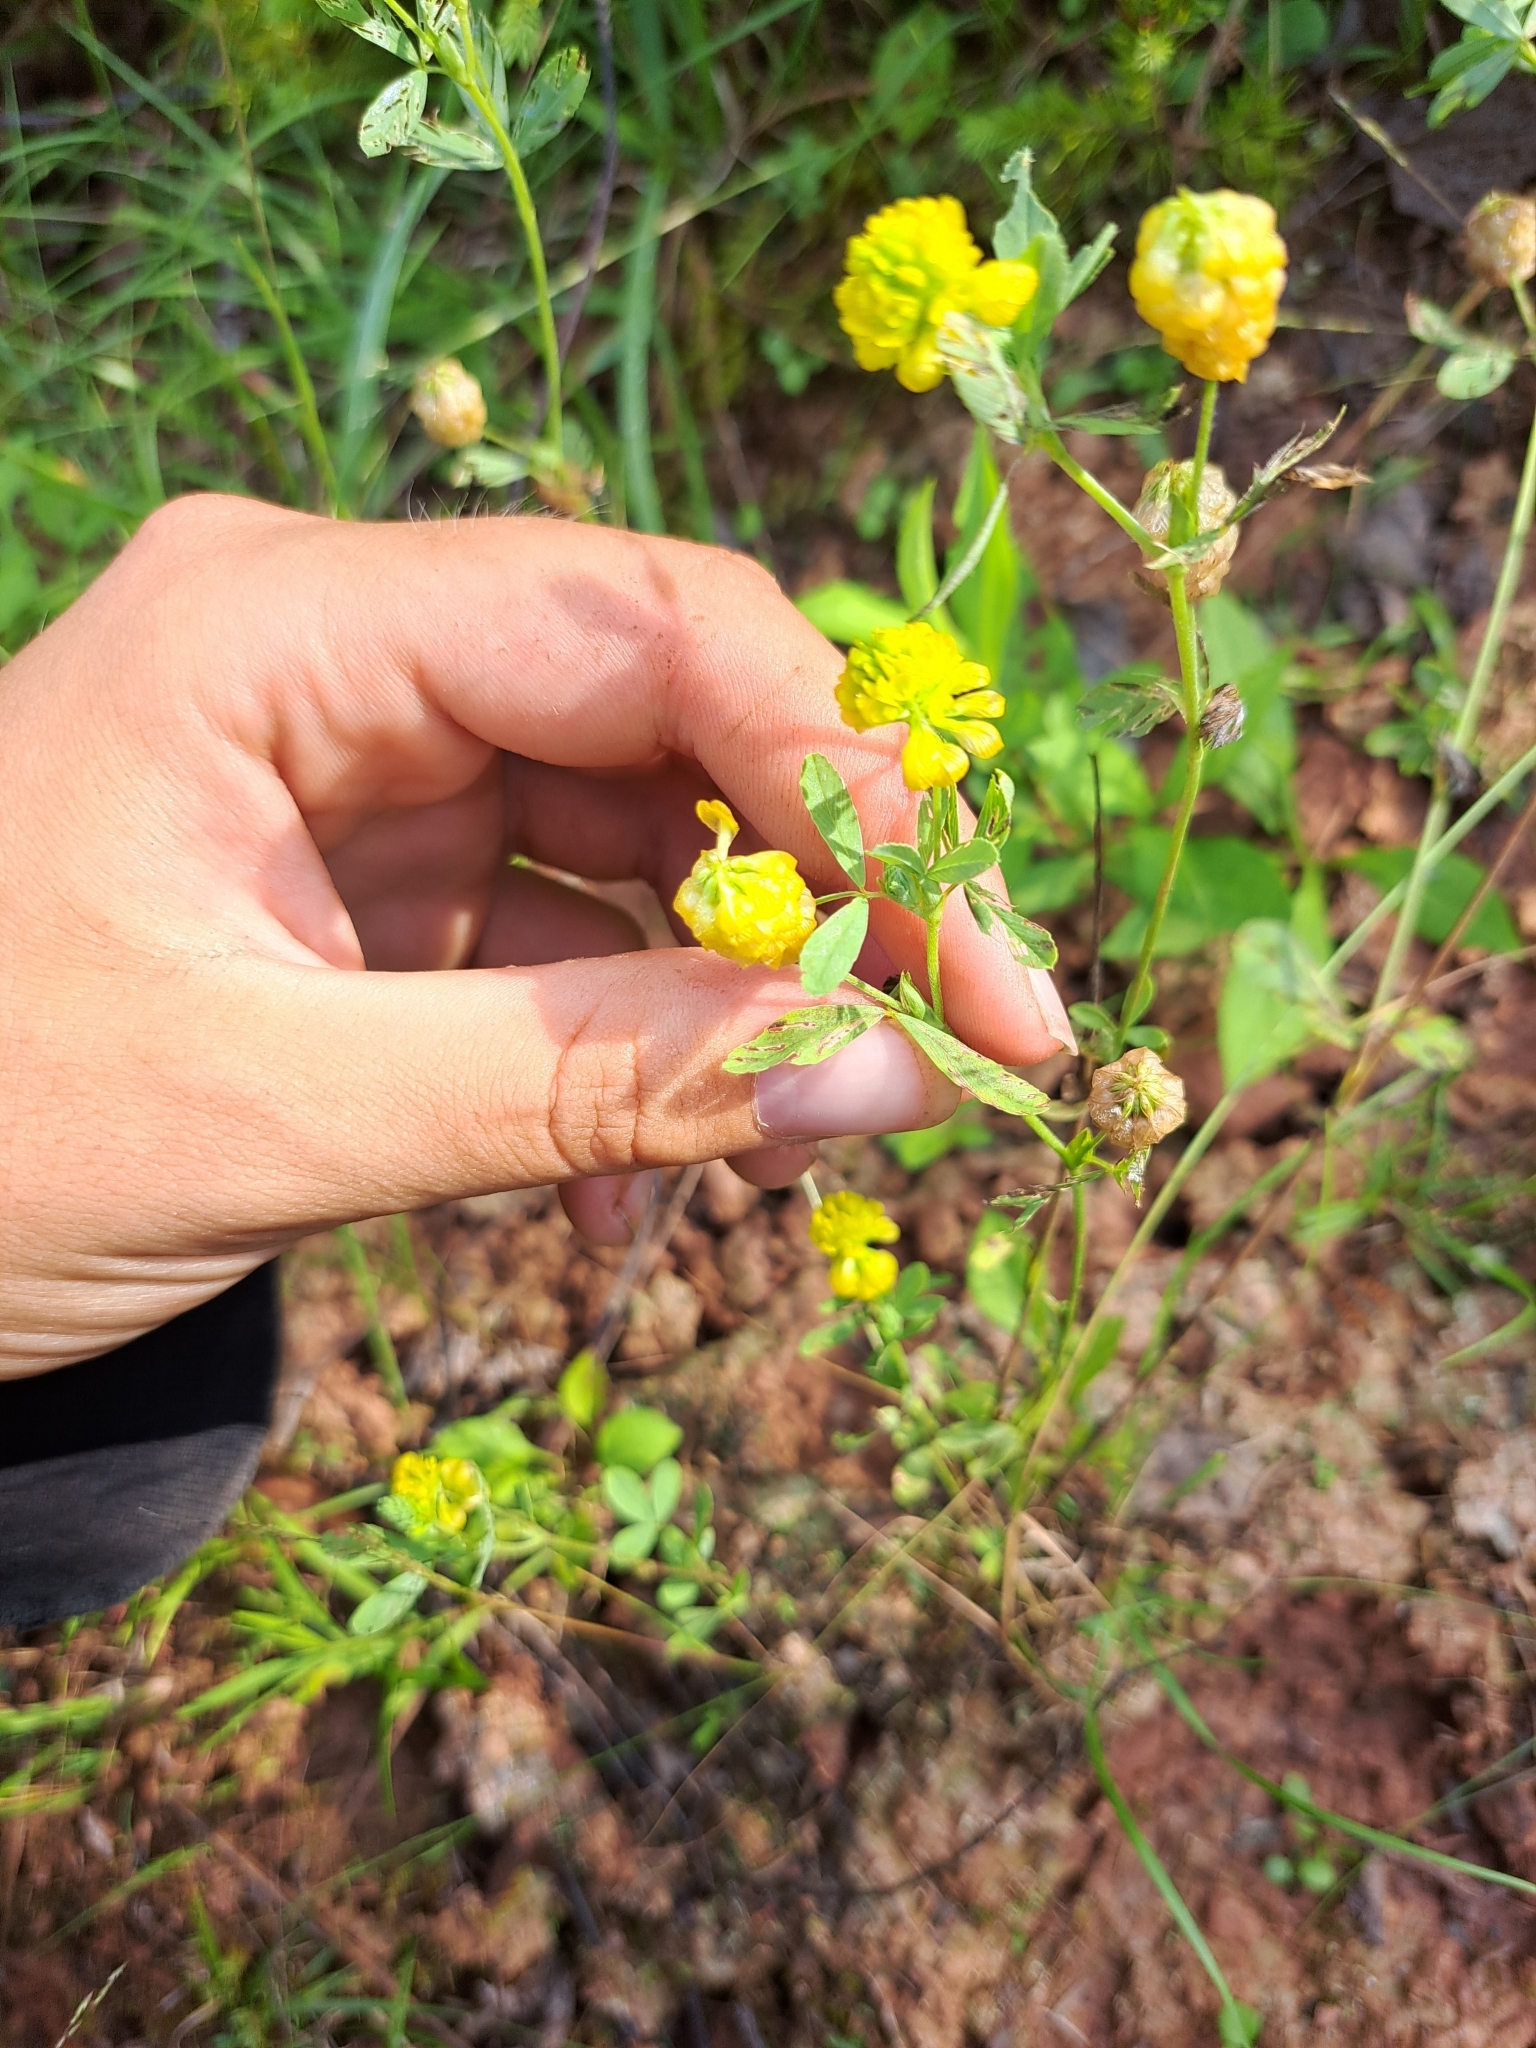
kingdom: Plantae
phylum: Tracheophyta
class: Magnoliopsida
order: Fabales
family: Fabaceae
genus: Trifolium
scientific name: Trifolium aureum
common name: Golden clover
